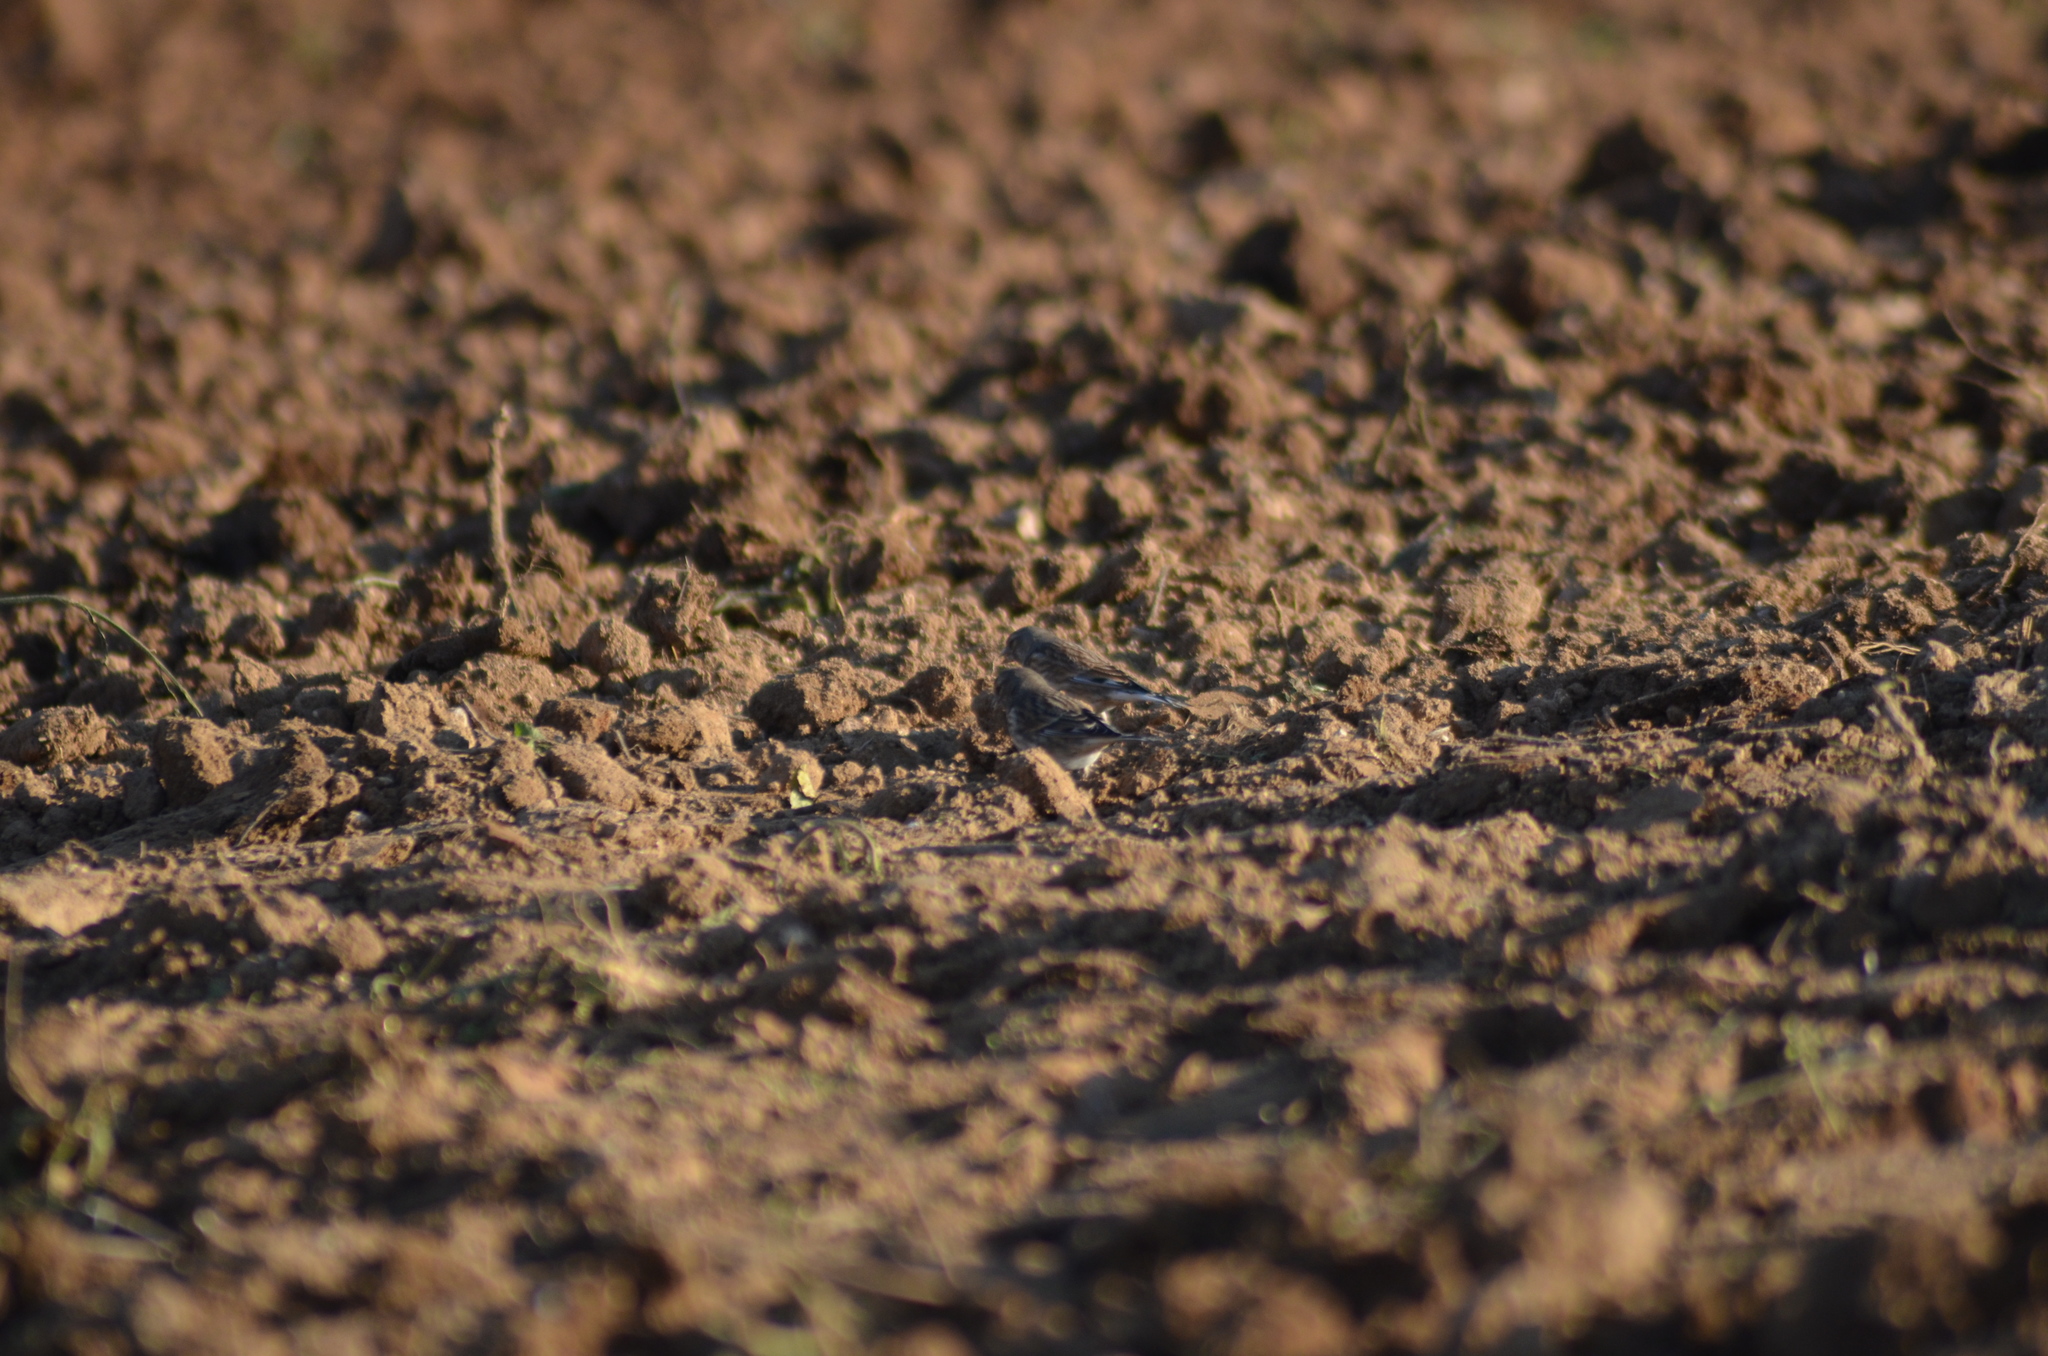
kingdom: Animalia
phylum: Chordata
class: Aves
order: Passeriformes
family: Fringillidae
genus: Linaria
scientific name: Linaria cannabina
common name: Common linnet
